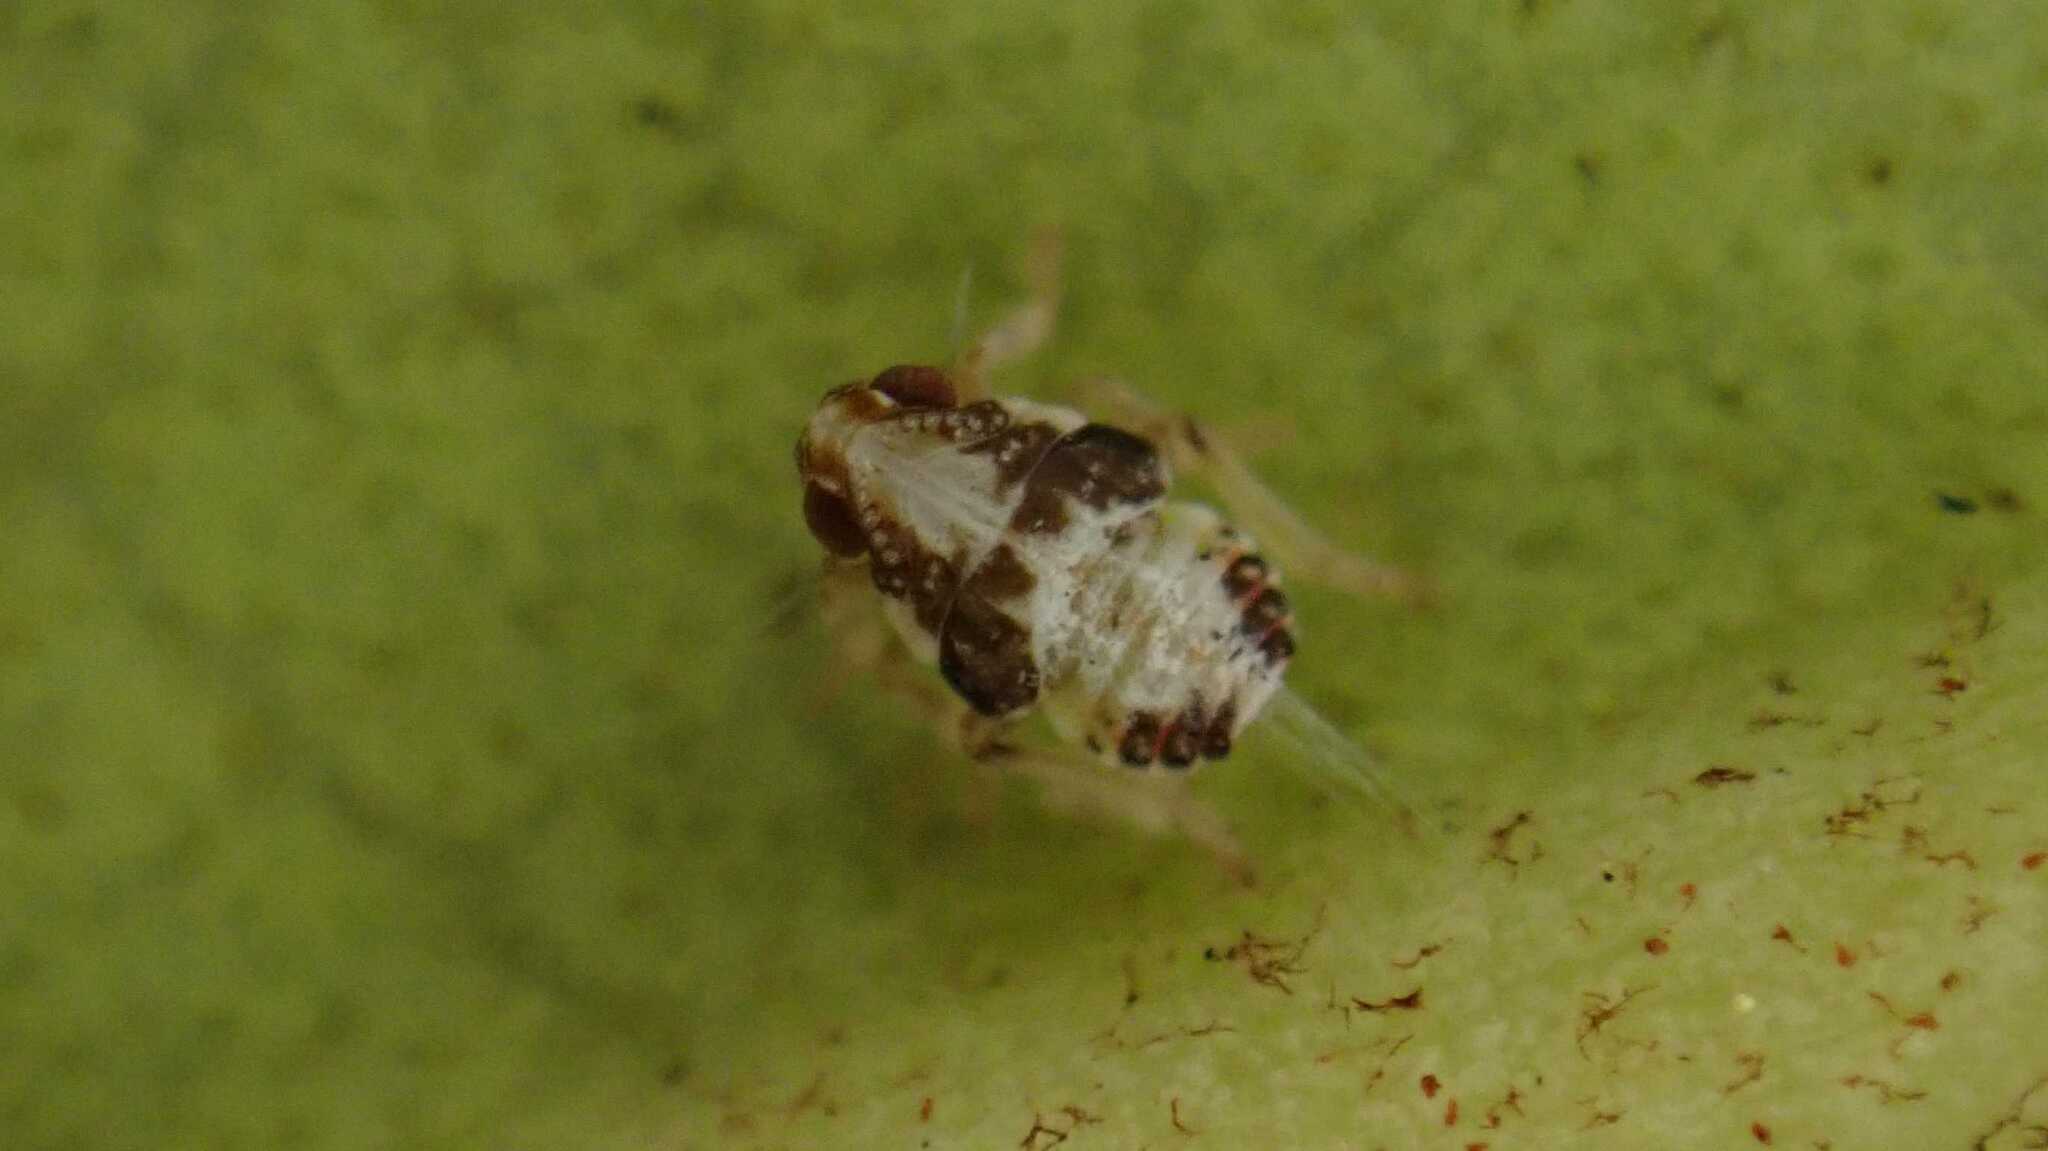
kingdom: Animalia
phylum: Arthropoda
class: Insecta
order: Hemiptera
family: Issidae
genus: Issus
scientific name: Issus
